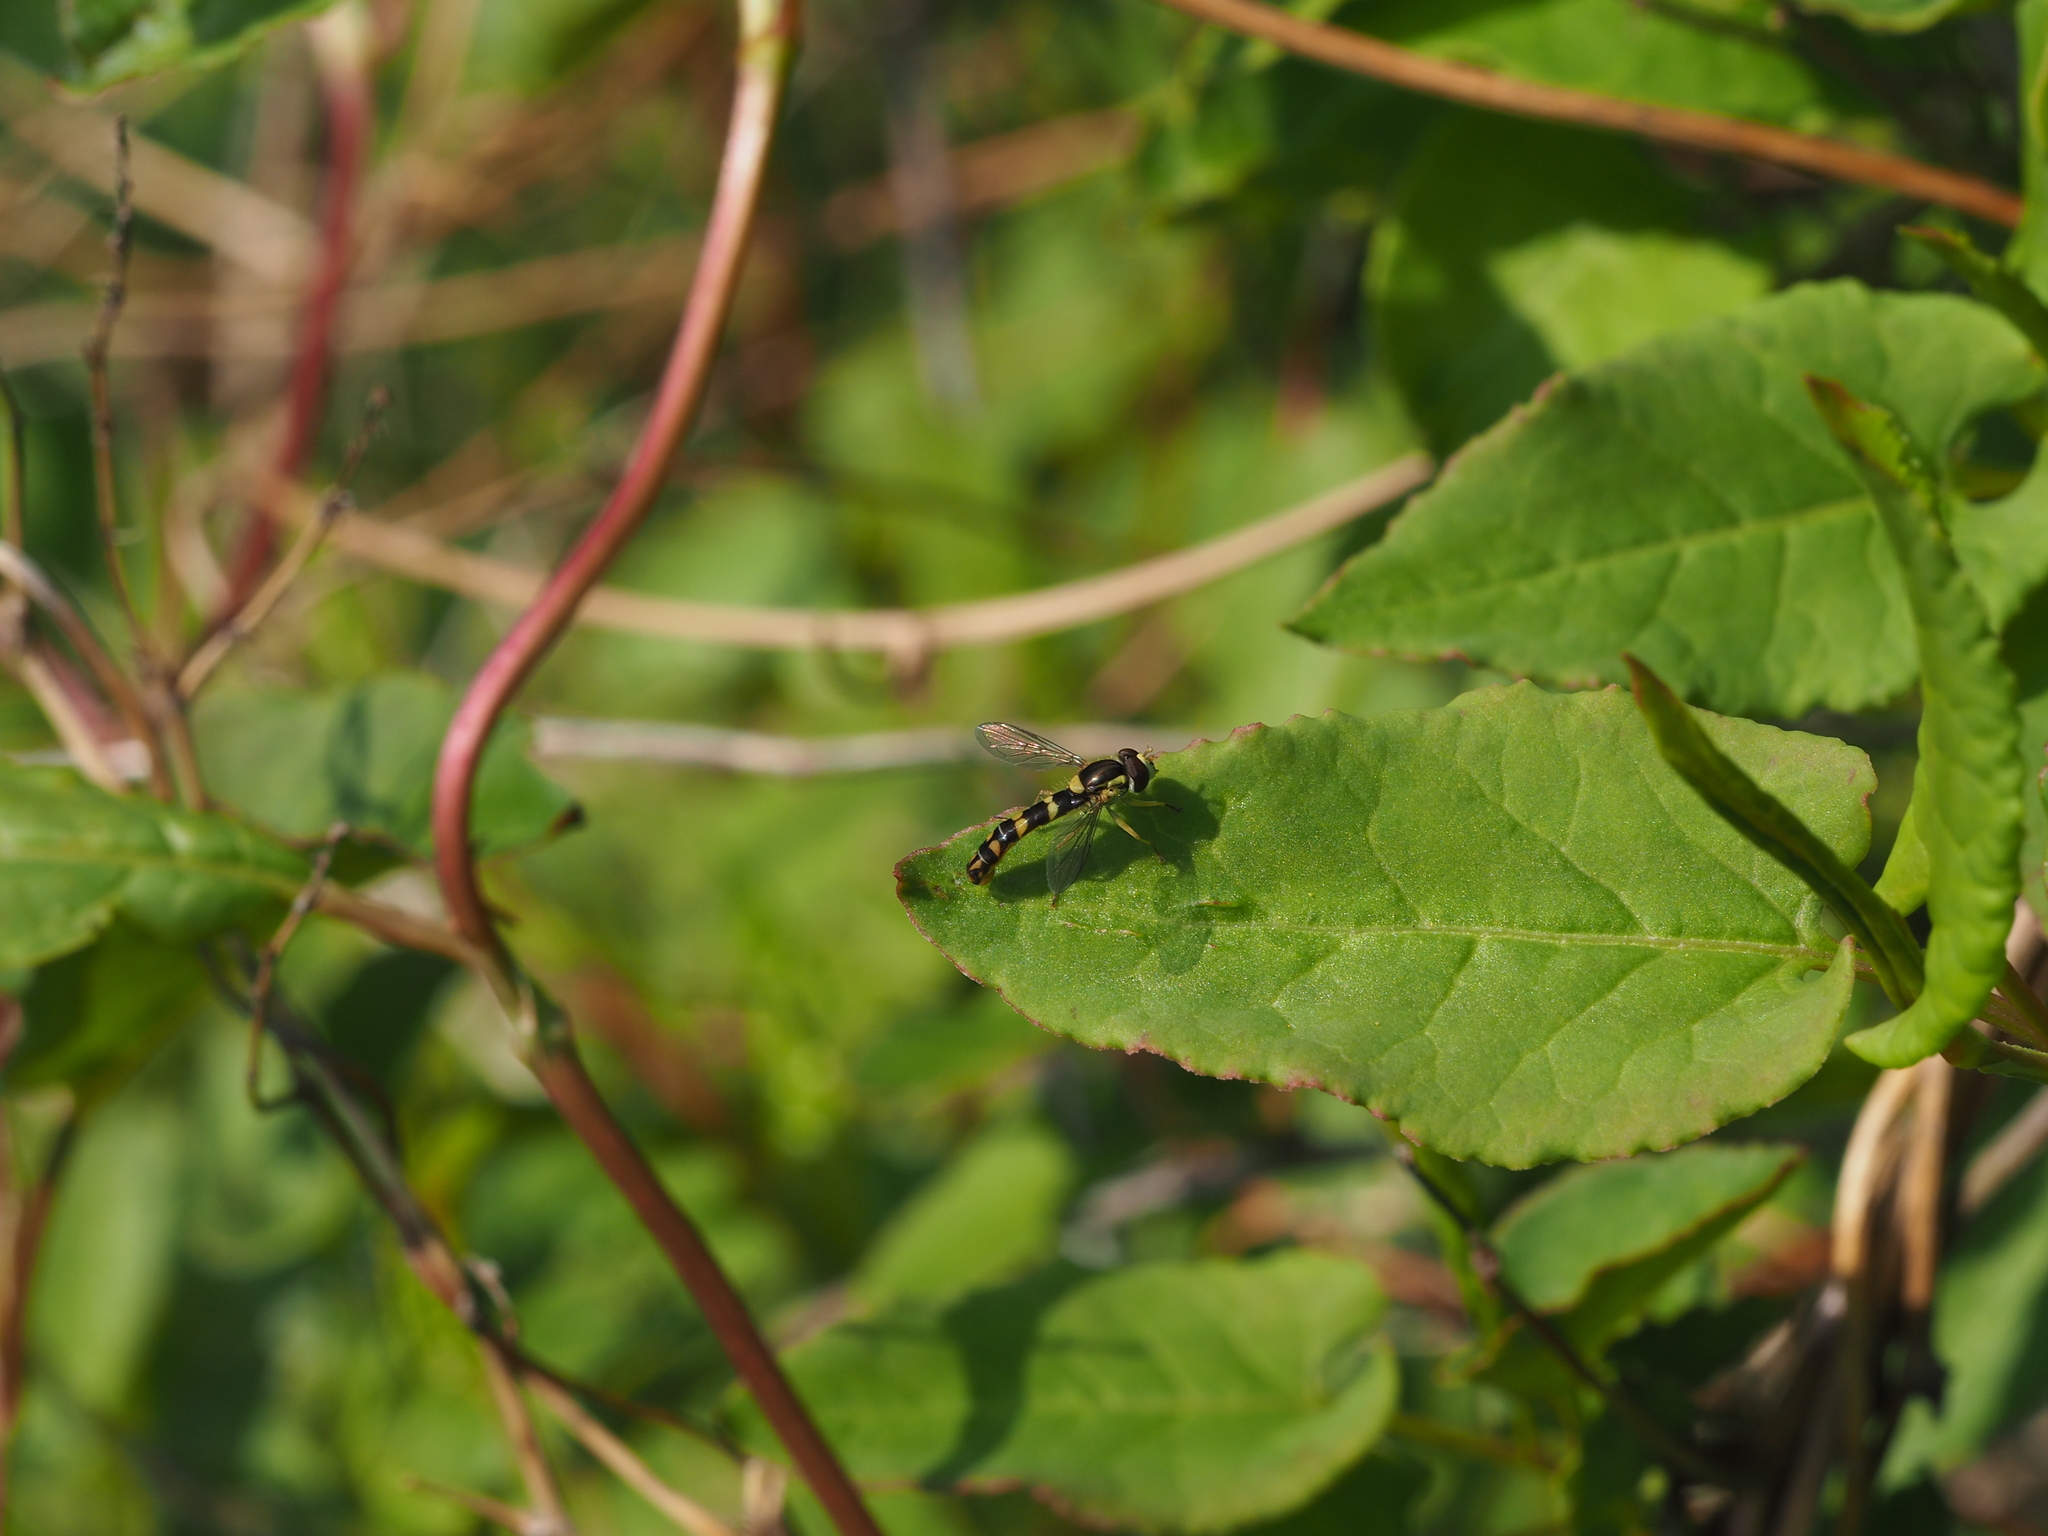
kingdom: Animalia
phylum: Arthropoda
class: Insecta
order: Diptera
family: Syrphidae
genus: Sphaerophoria
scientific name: Sphaerophoria scripta
